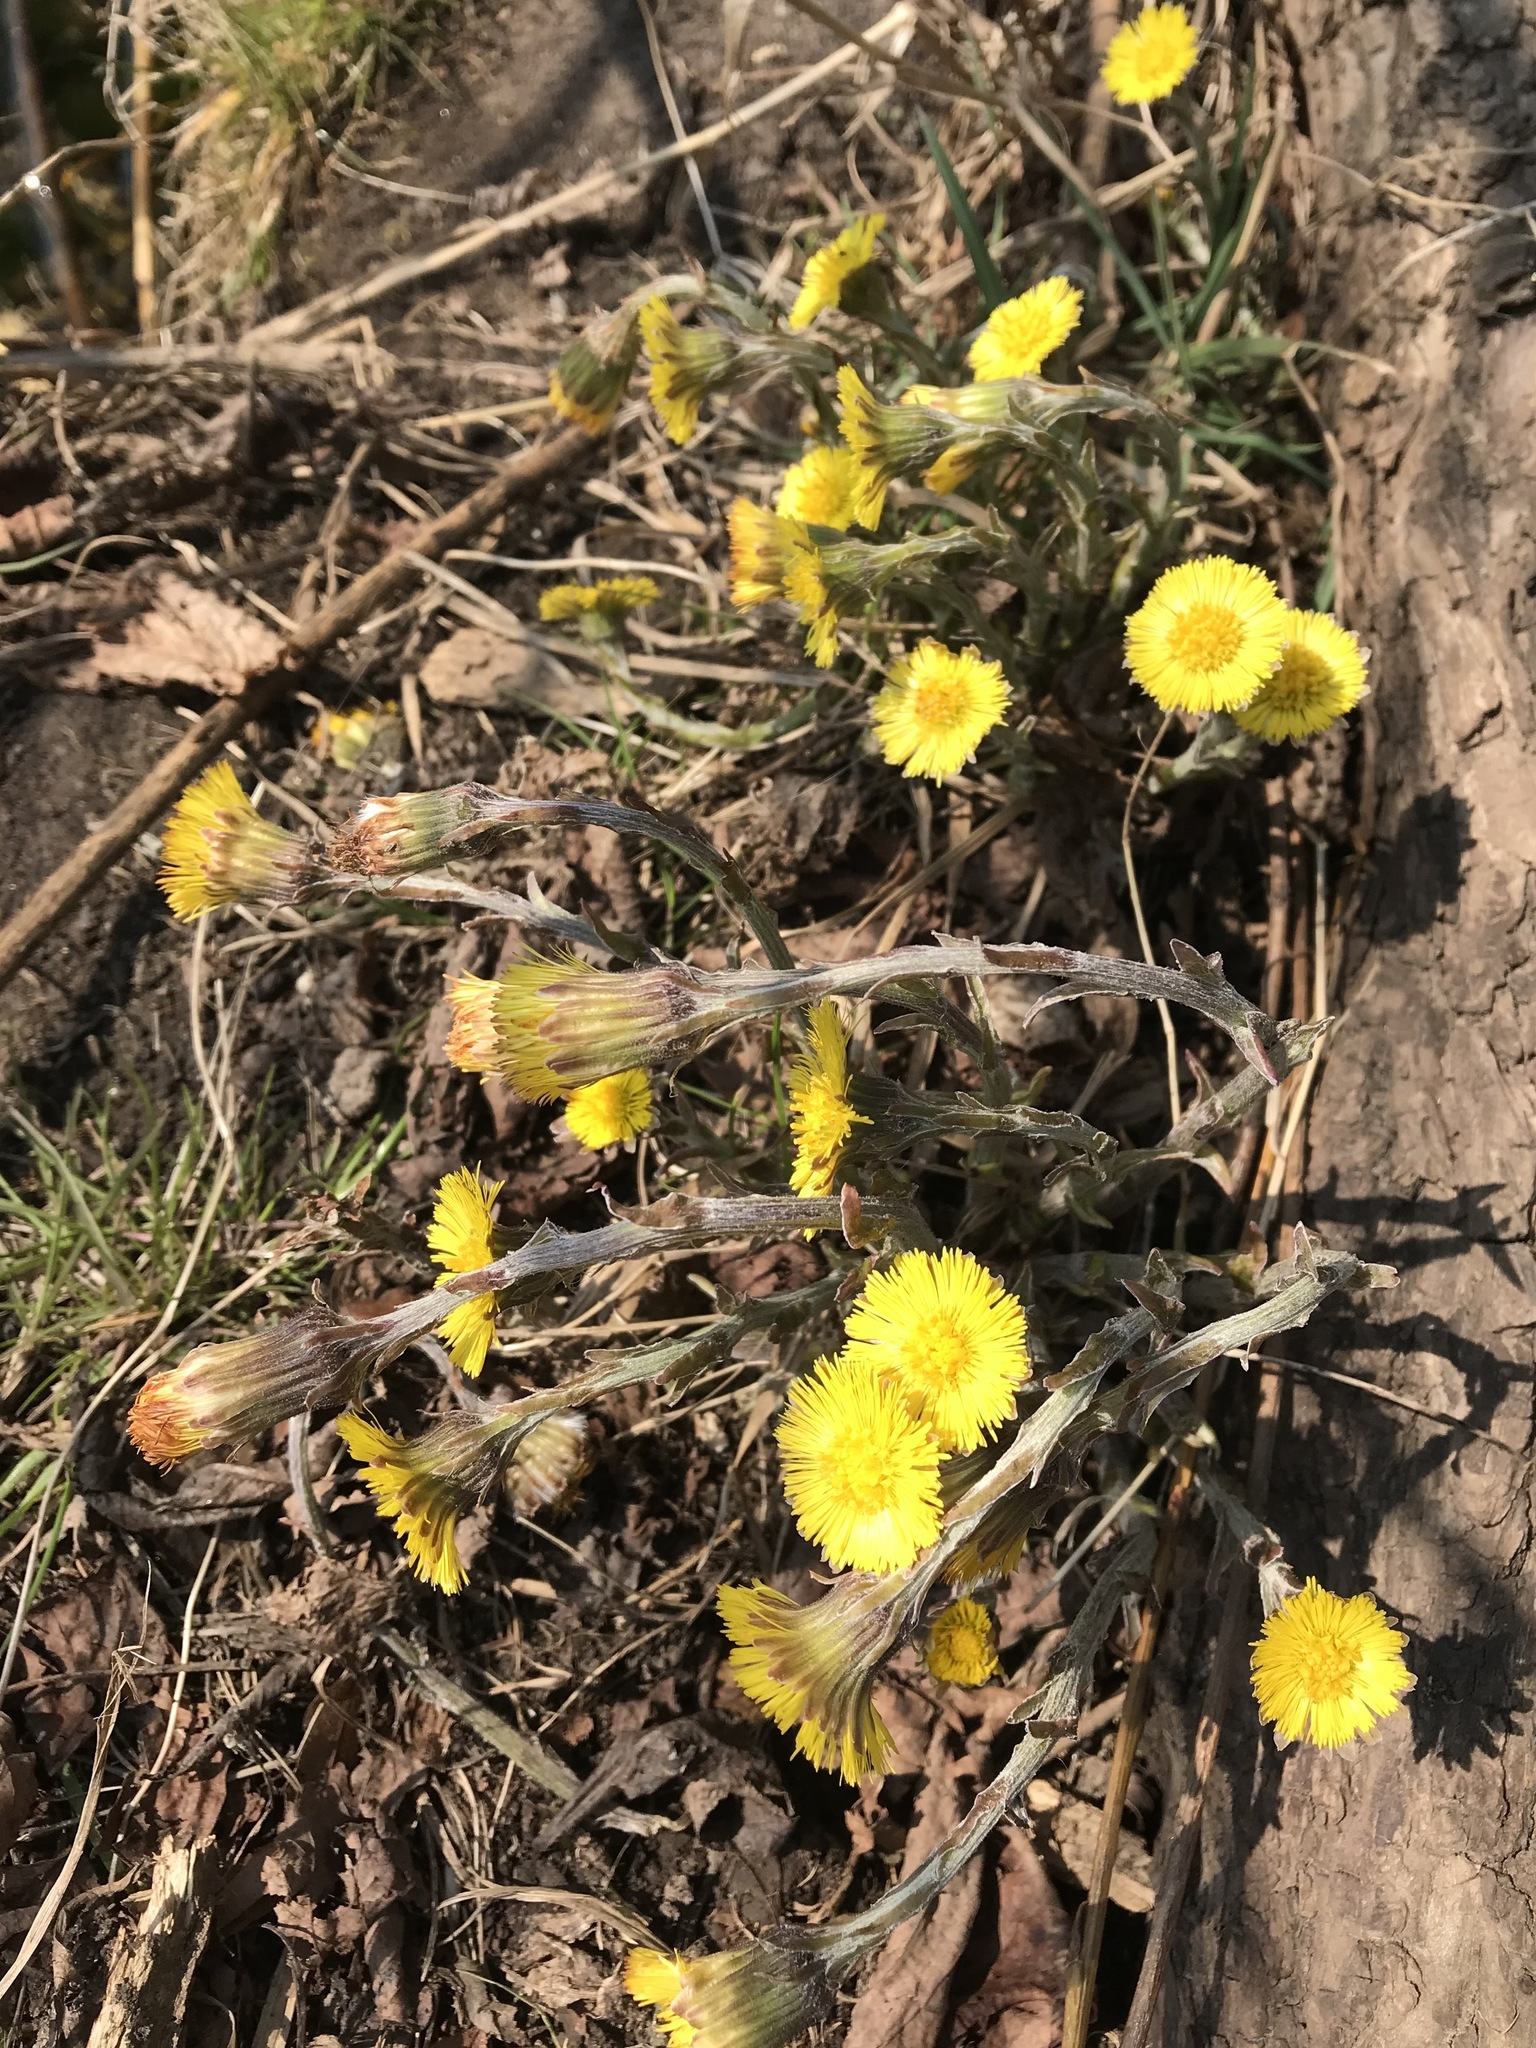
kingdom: Plantae
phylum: Tracheophyta
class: Magnoliopsida
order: Asterales
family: Asteraceae
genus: Tussilago
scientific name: Tussilago farfara
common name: Coltsfoot
